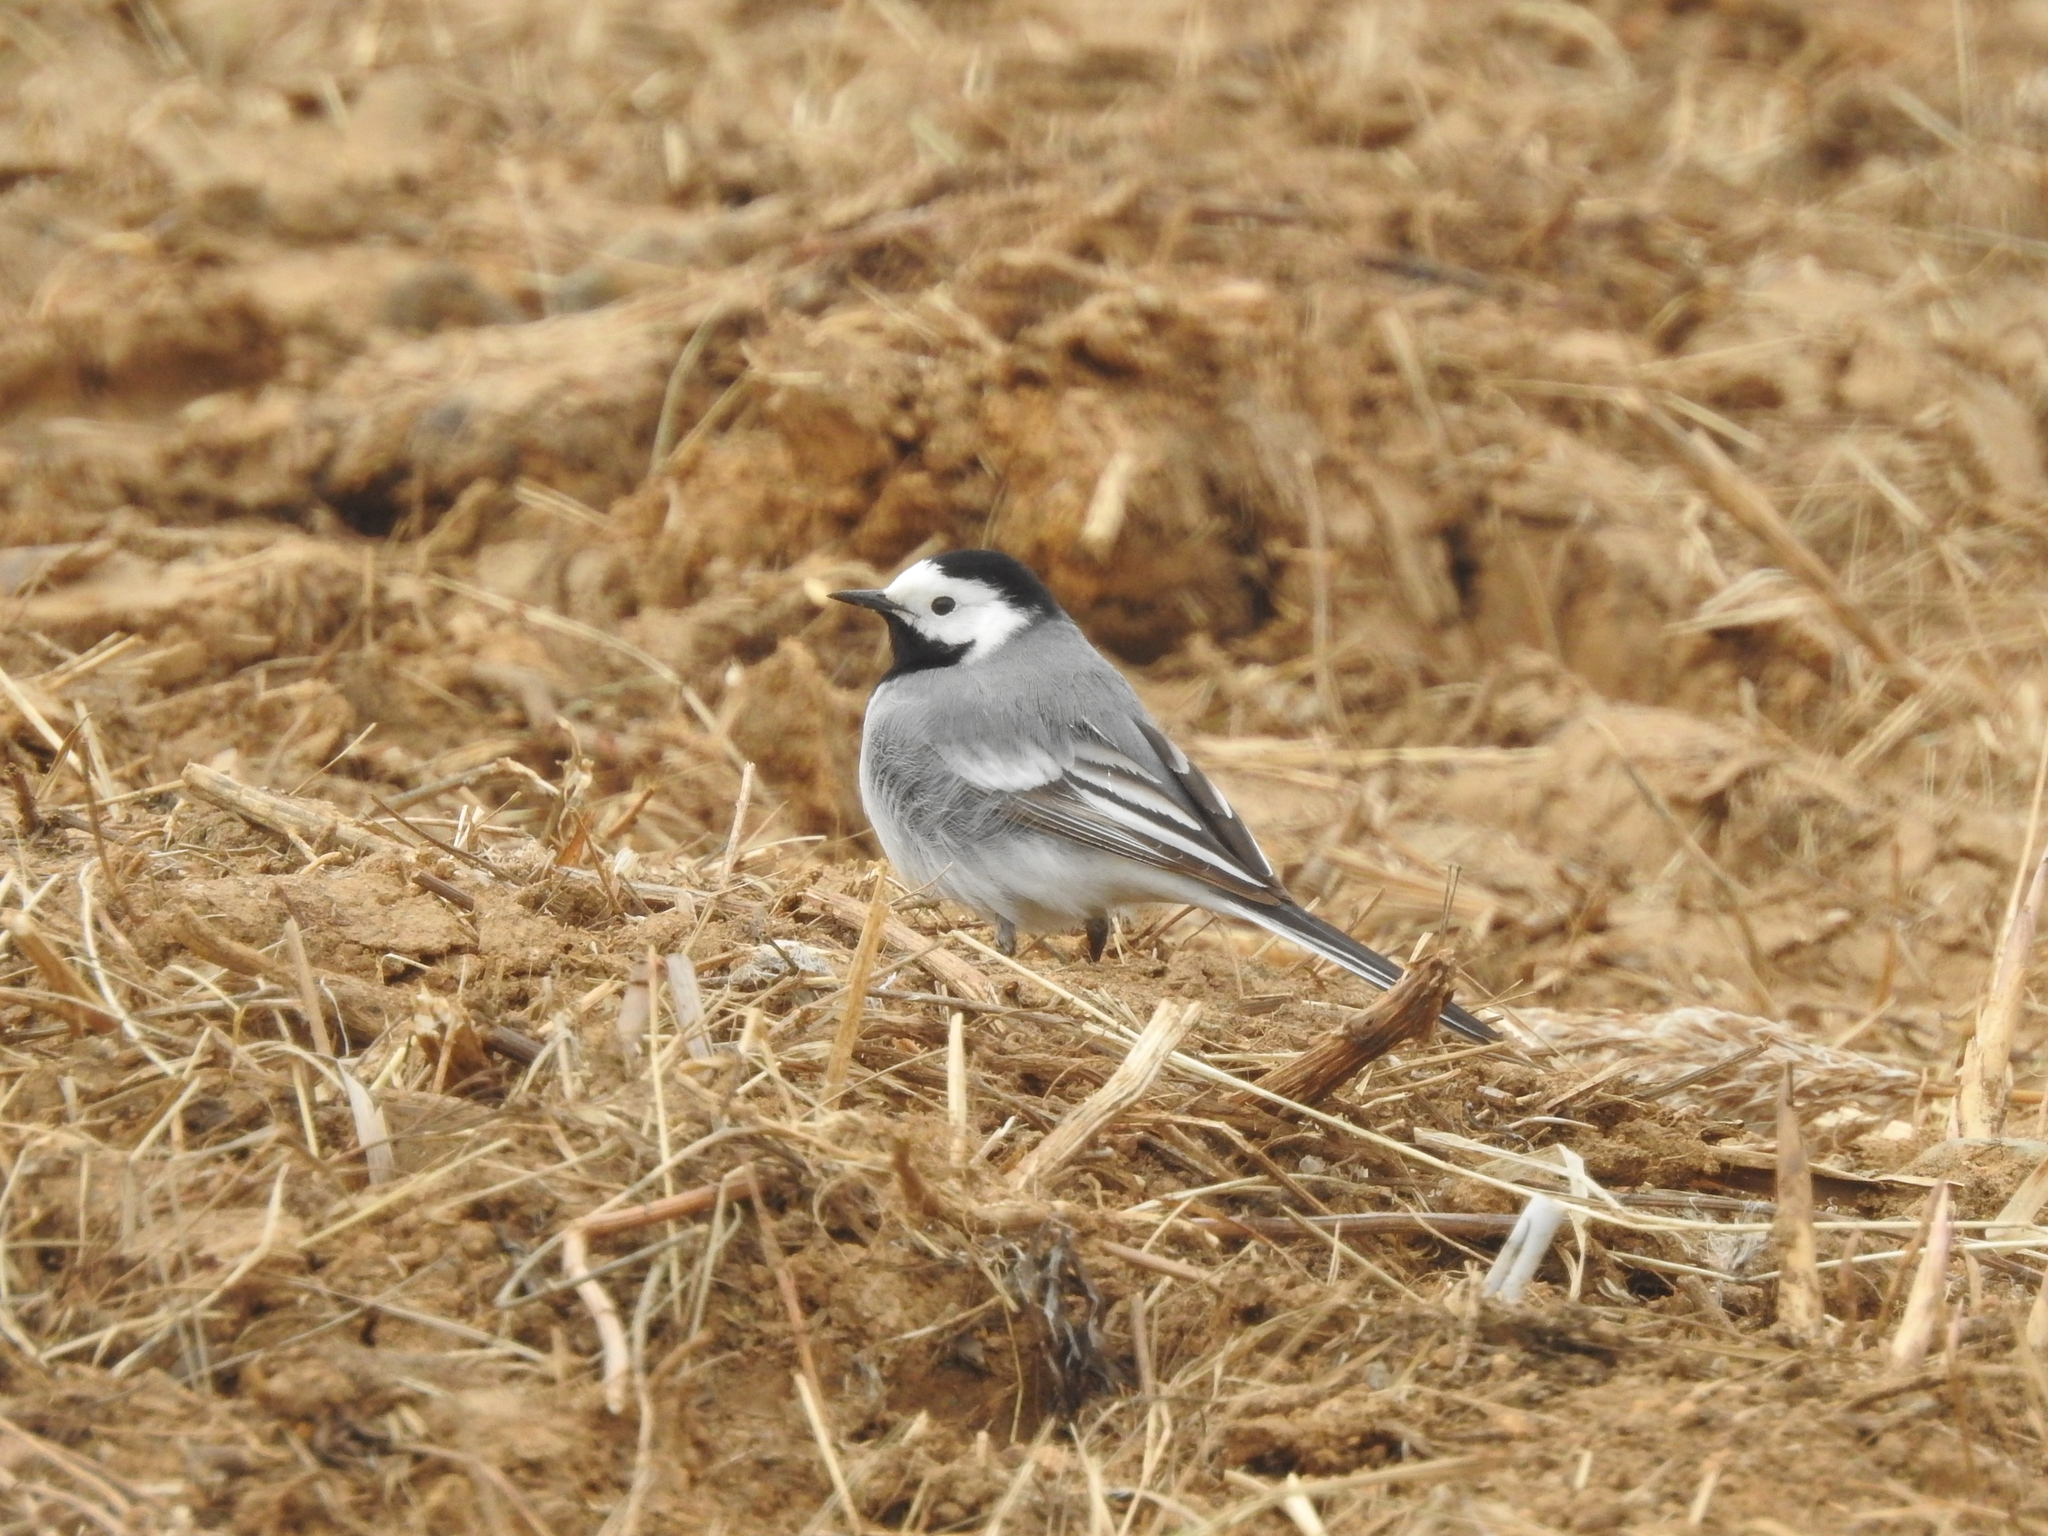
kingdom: Animalia
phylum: Chordata
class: Aves
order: Passeriformes
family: Motacillidae
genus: Motacilla
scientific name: Motacilla alba
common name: White wagtail
